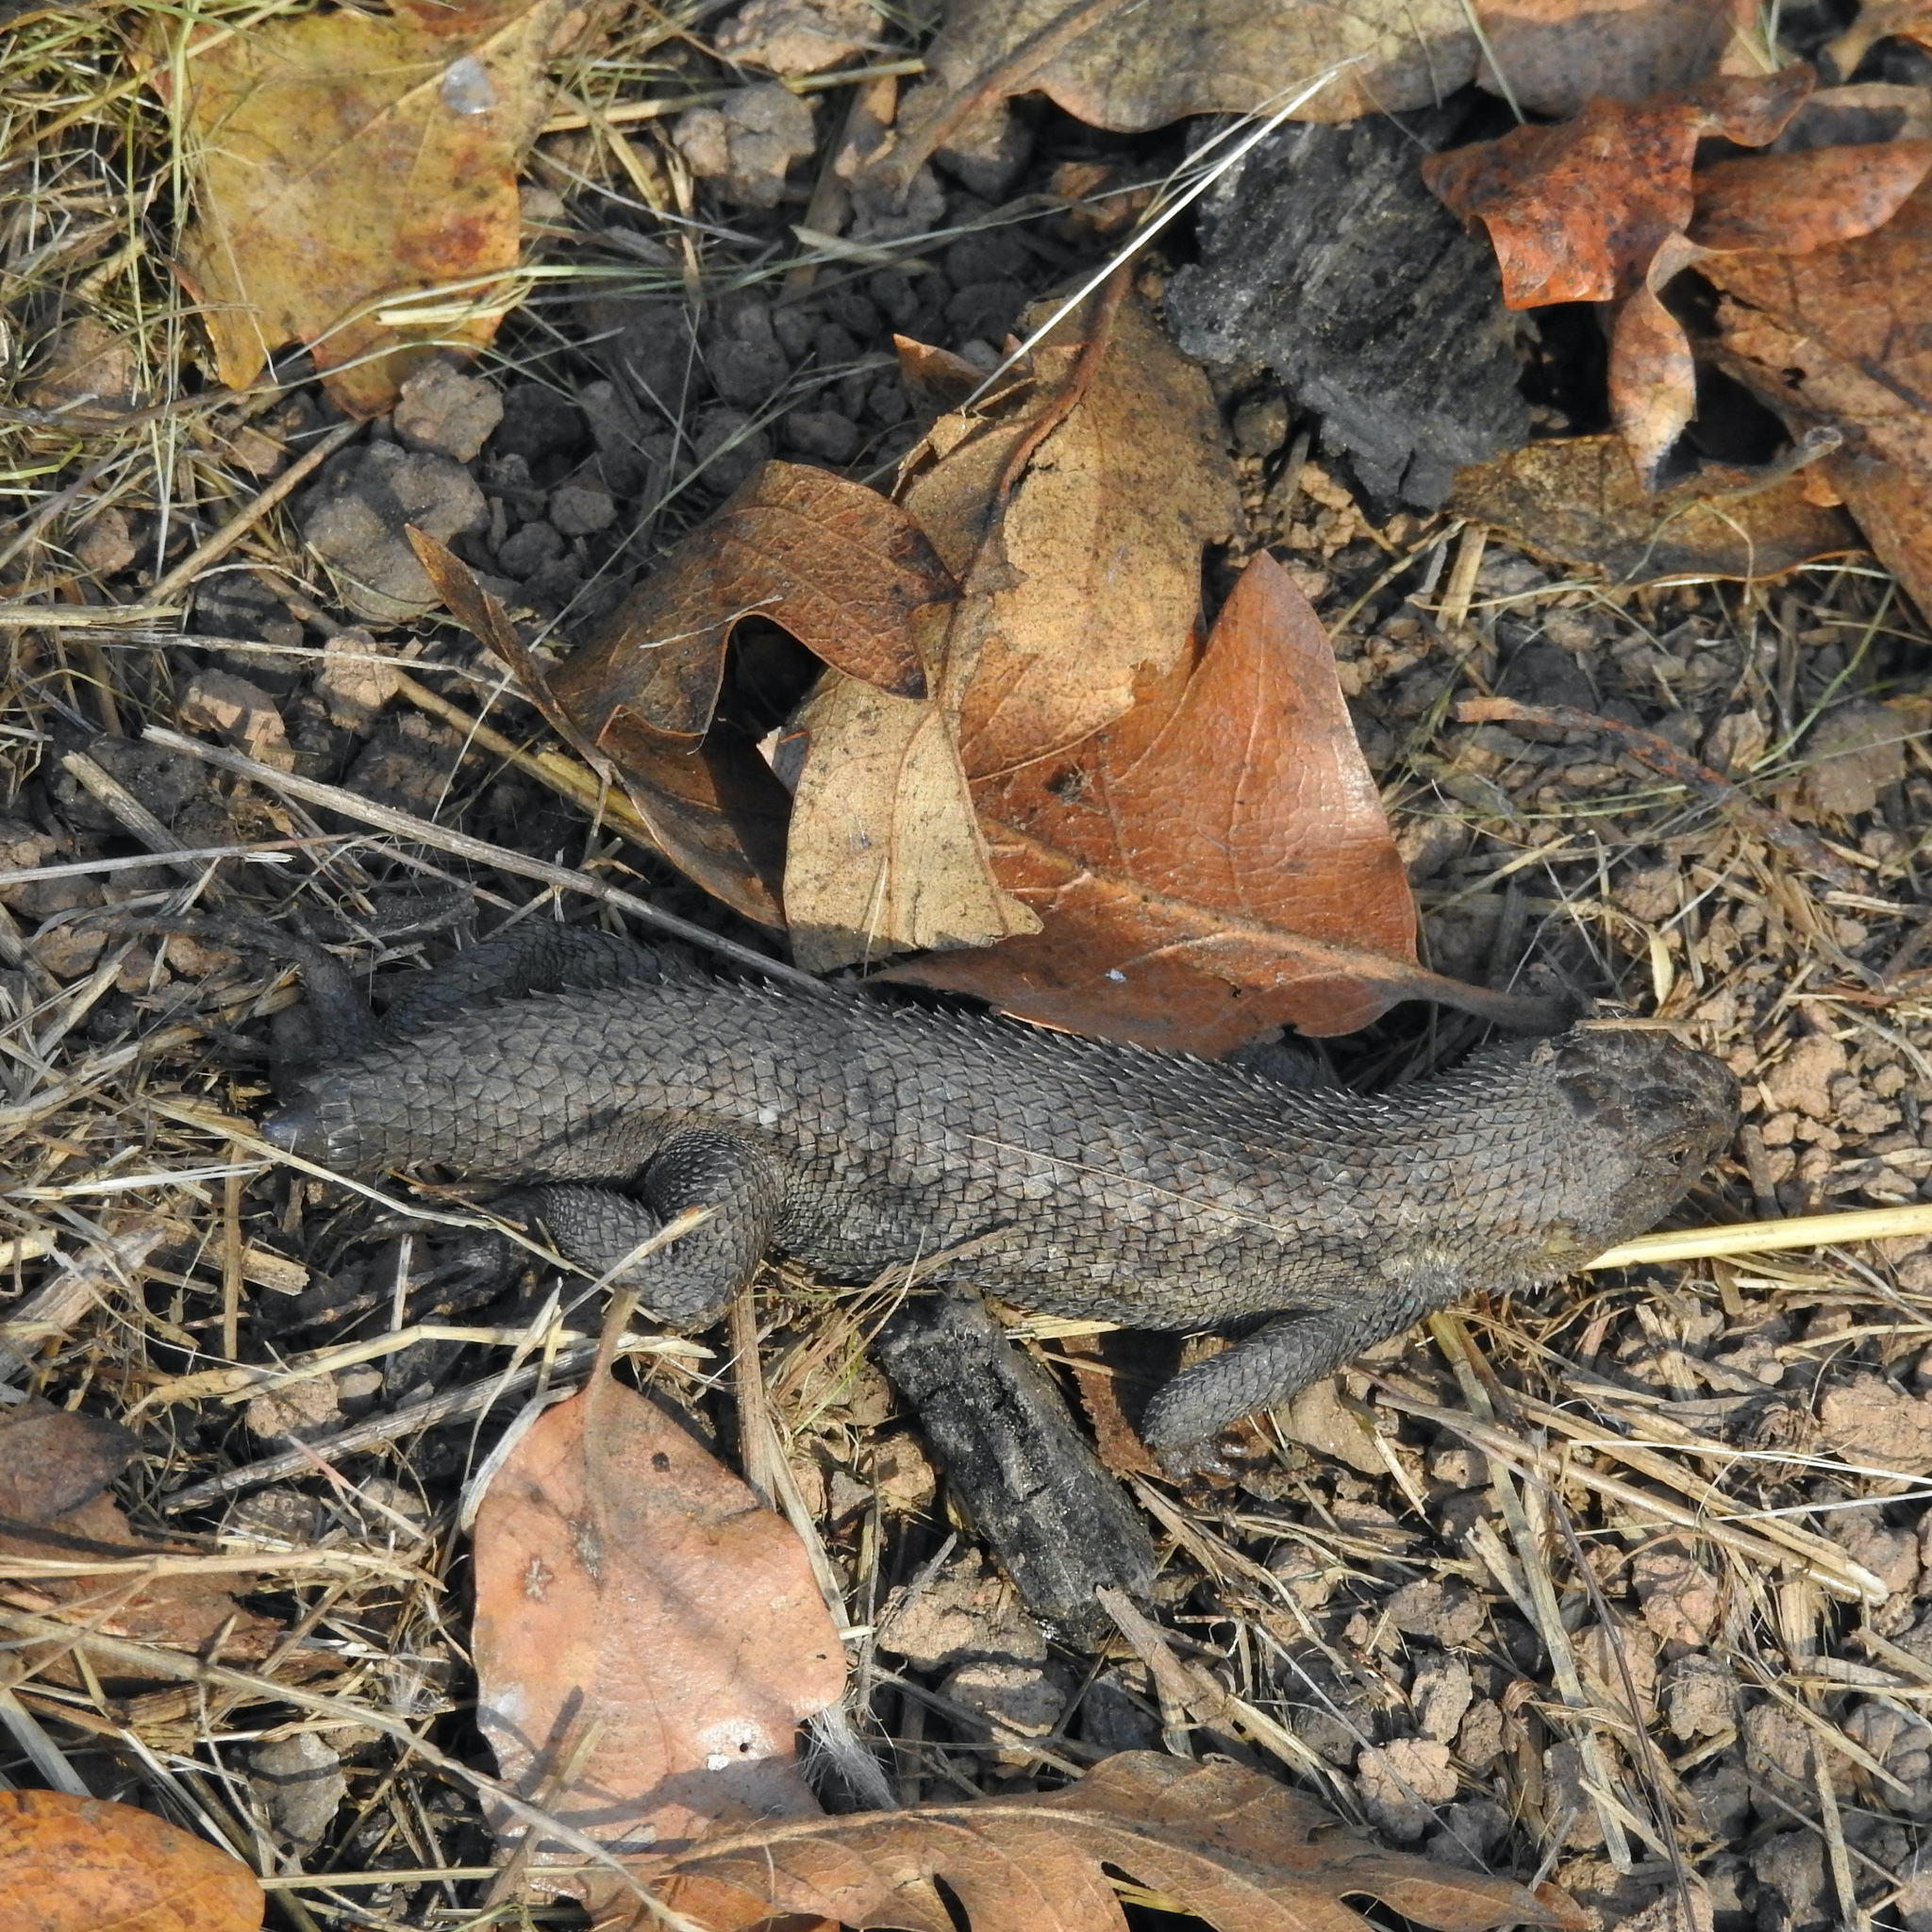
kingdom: Animalia
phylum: Chordata
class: Squamata
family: Phrynosomatidae
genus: Sceloporus
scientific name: Sceloporus occidentalis
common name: Western fence lizard
